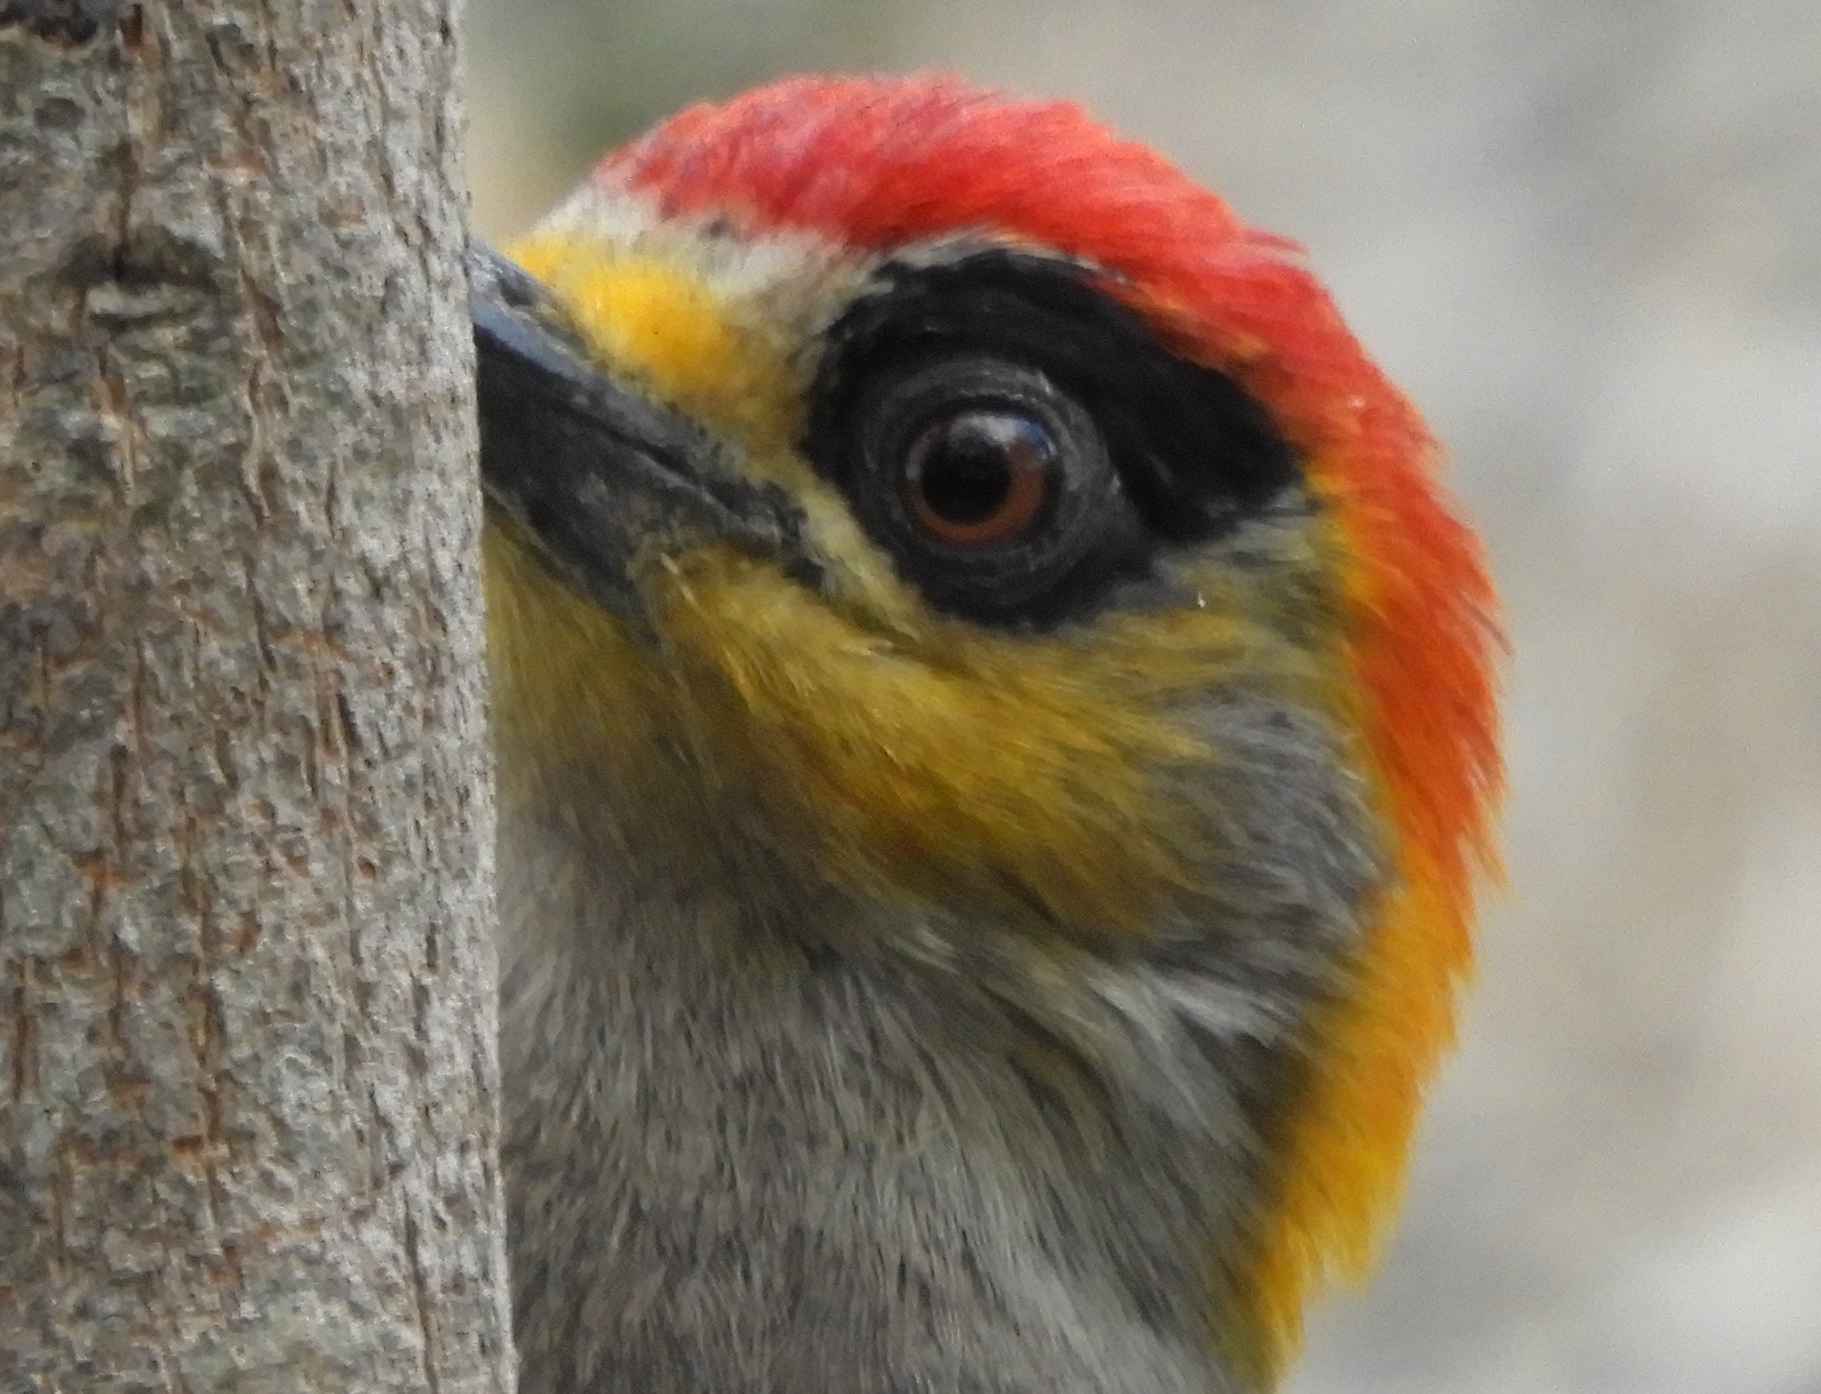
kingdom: Animalia
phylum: Chordata
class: Aves
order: Piciformes
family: Picidae
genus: Melanerpes
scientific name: Melanerpes chrysogenys
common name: Golden-cheeked woodpecker
